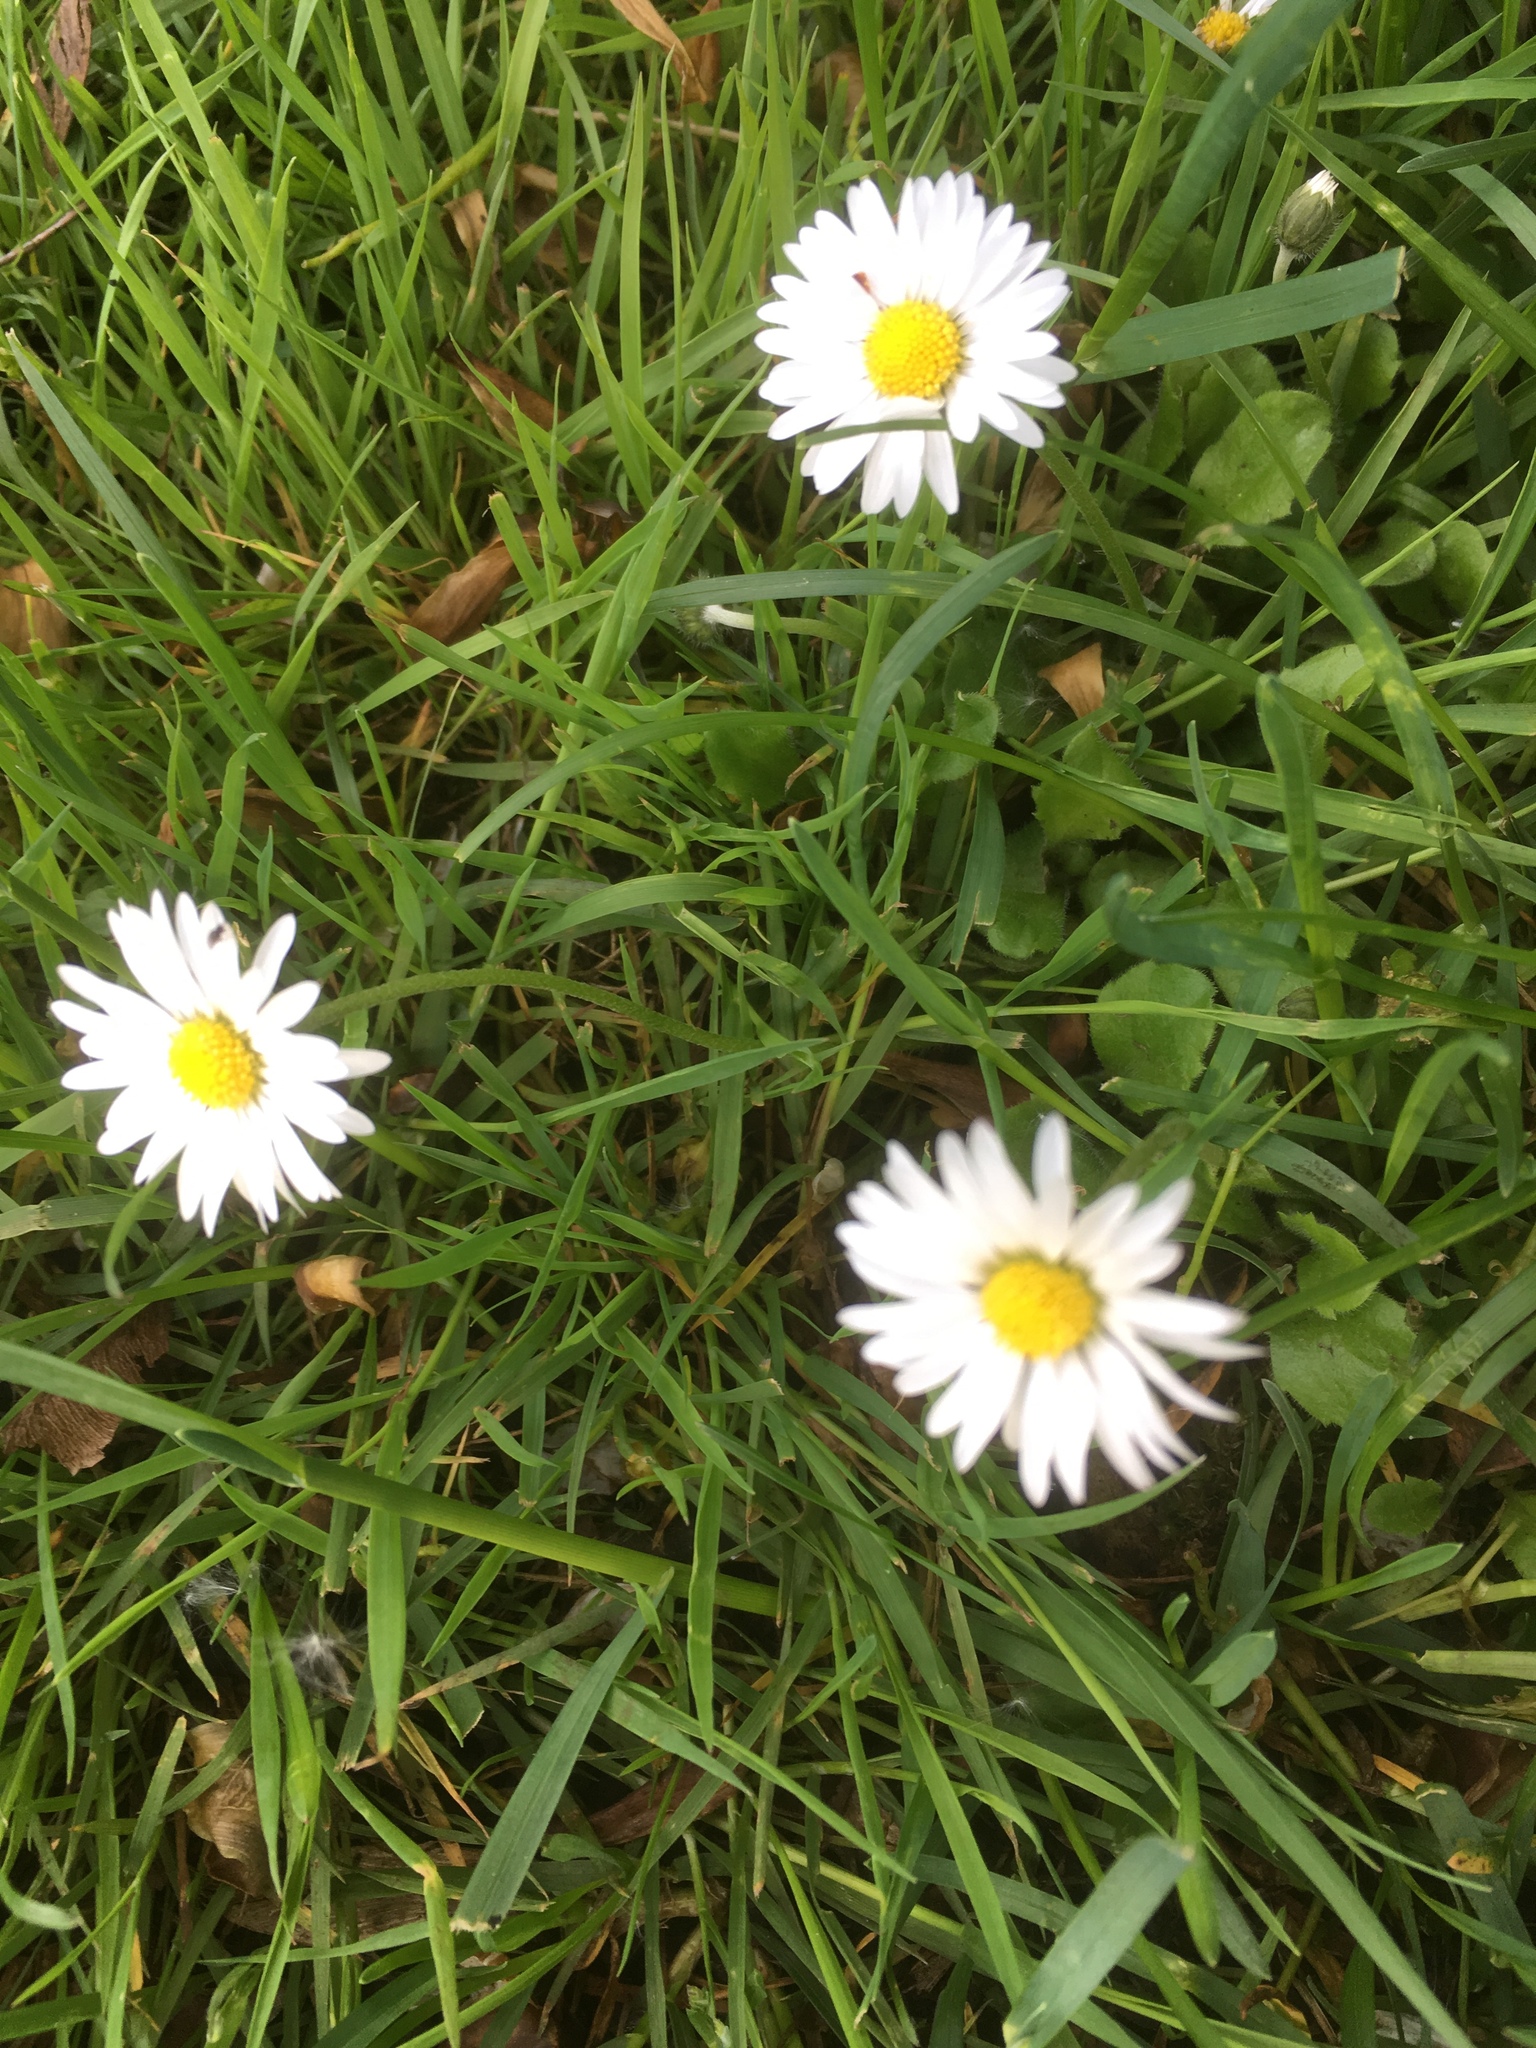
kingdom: Plantae
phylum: Tracheophyta
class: Magnoliopsida
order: Asterales
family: Asteraceae
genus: Bellis
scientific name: Bellis perennis
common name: Lawndaisy
